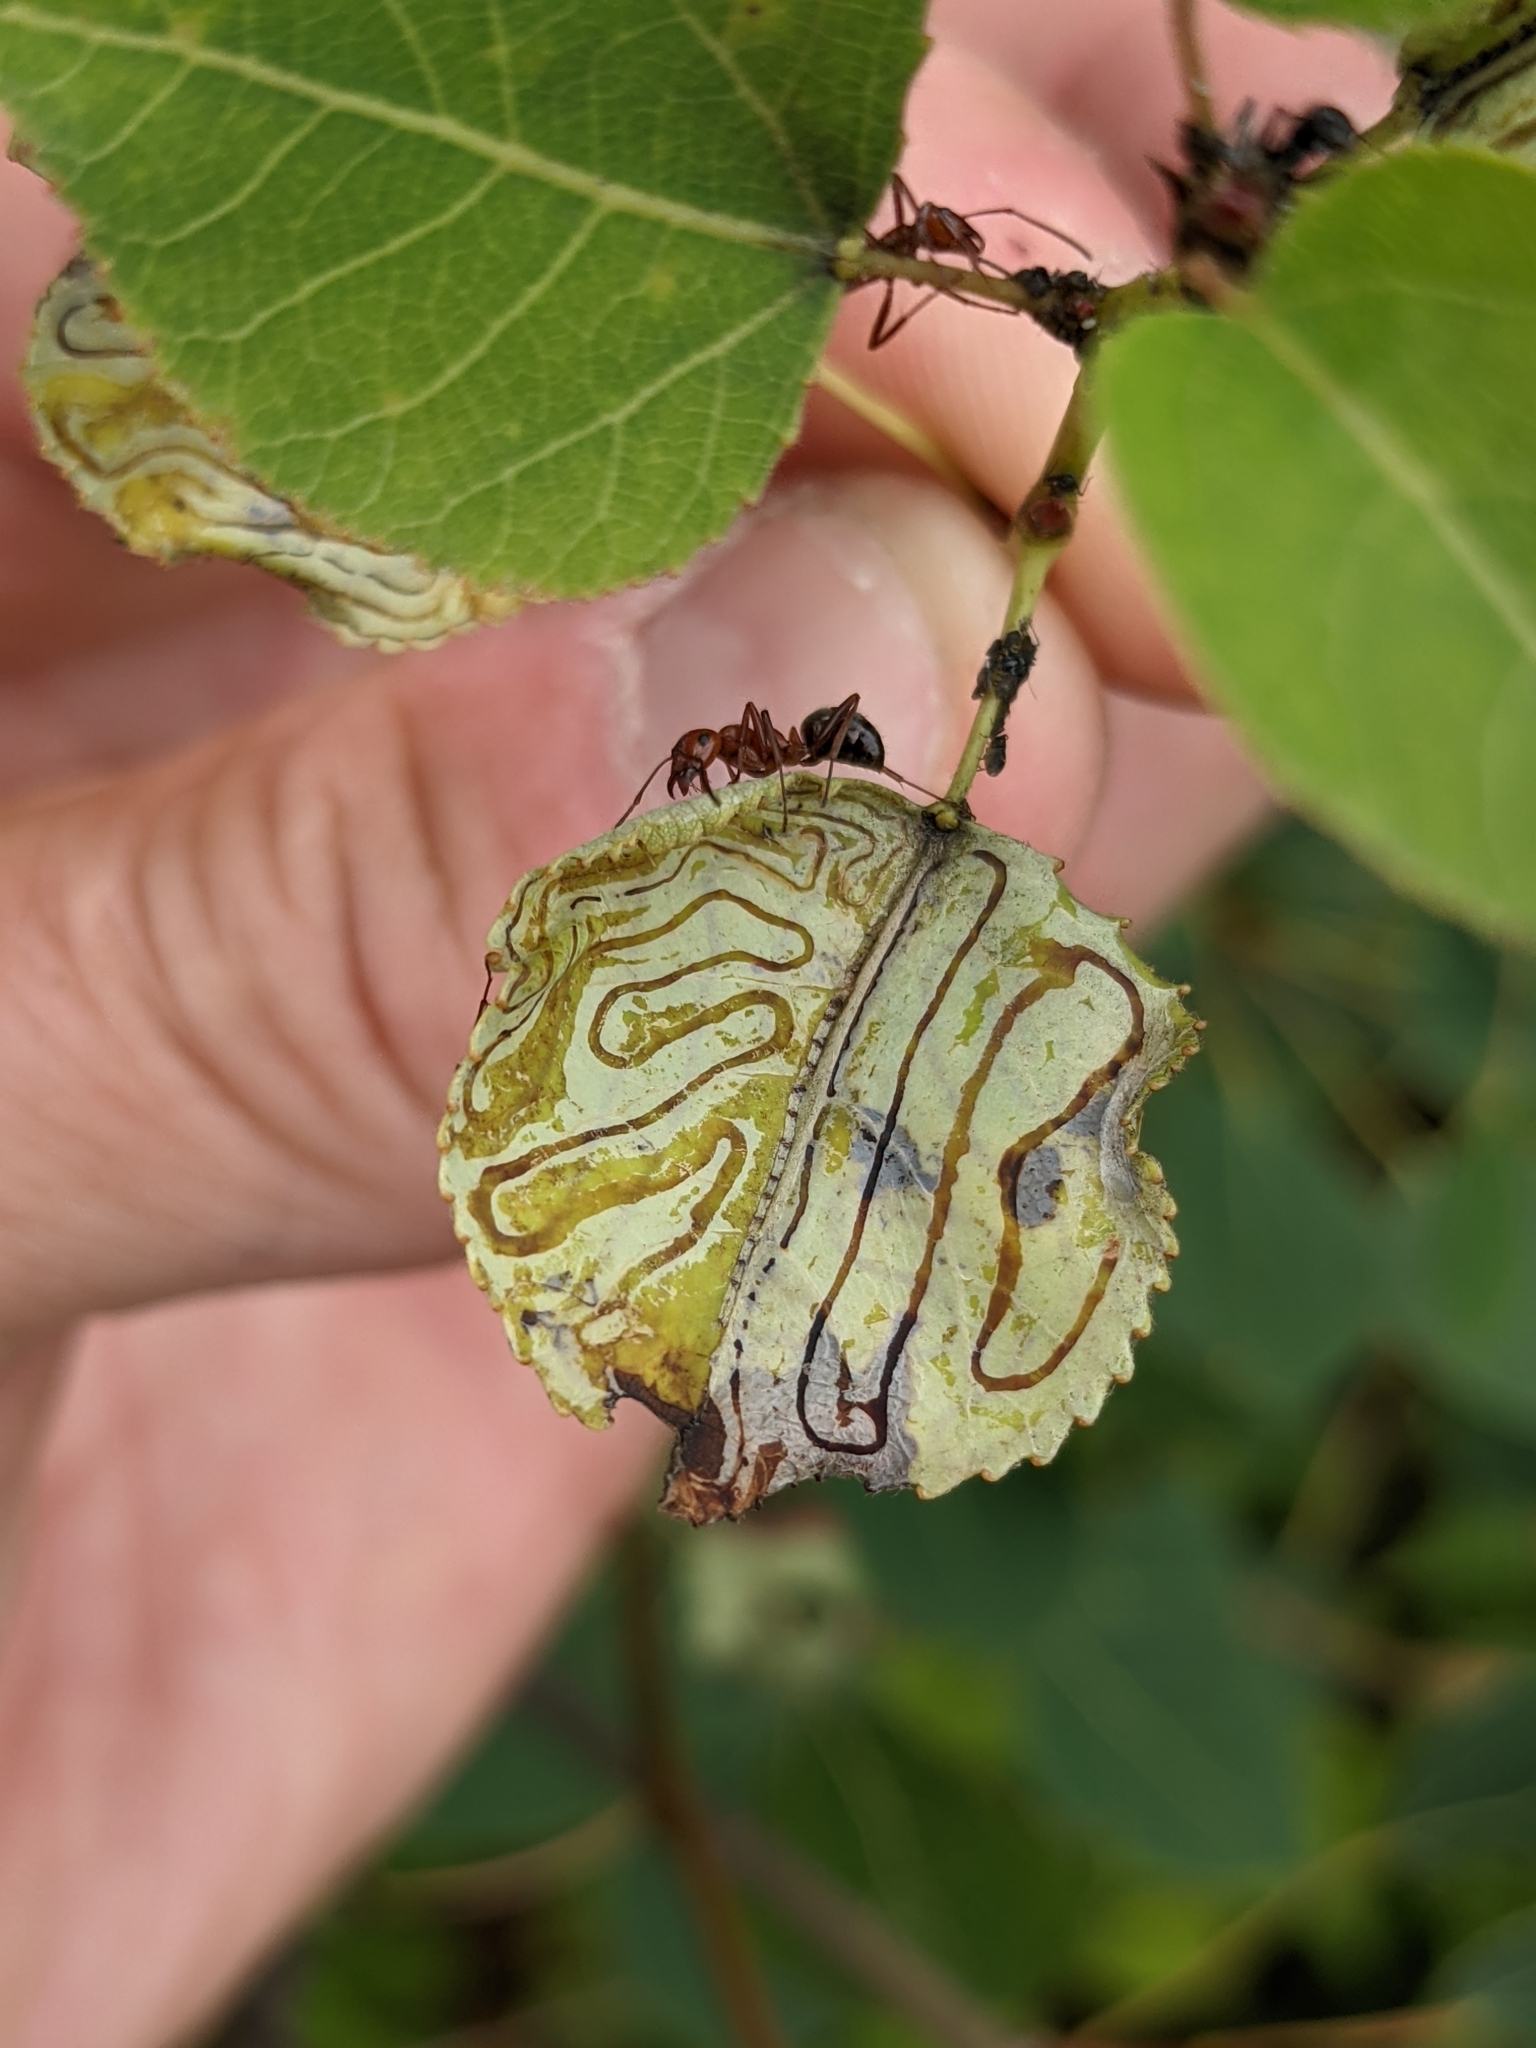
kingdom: Animalia
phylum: Arthropoda
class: Insecta
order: Lepidoptera
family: Gracillariidae
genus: Phyllocnistis
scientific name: Phyllocnistis populiella
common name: Aspen serpentine leafminer moth
